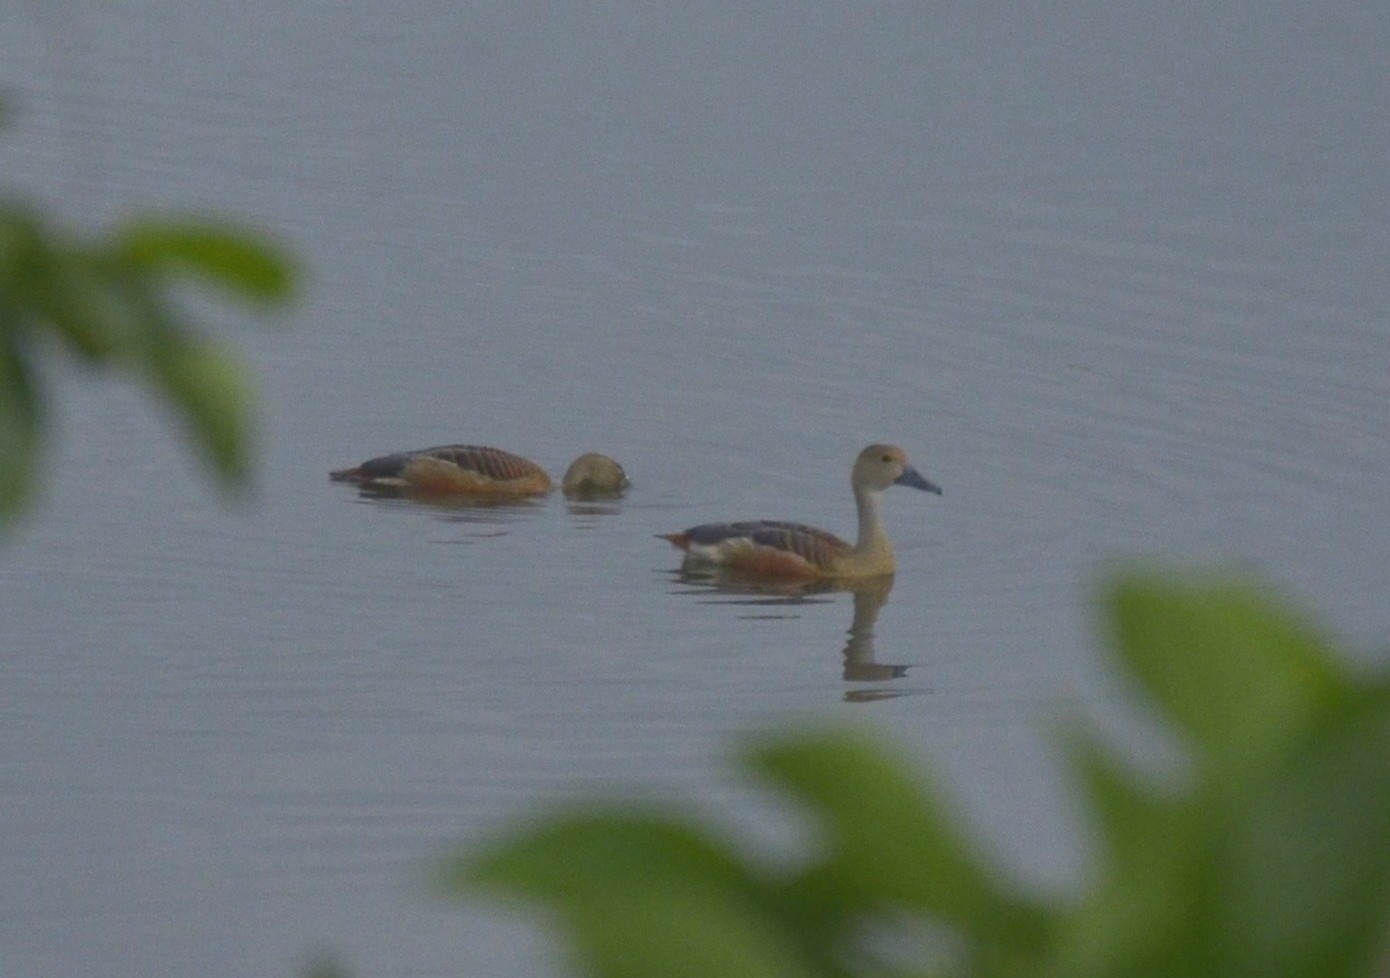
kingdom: Animalia
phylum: Chordata
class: Aves
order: Anseriformes
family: Anatidae
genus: Dendrocygna
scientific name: Dendrocygna javanica
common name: Lesser whistling-duck
